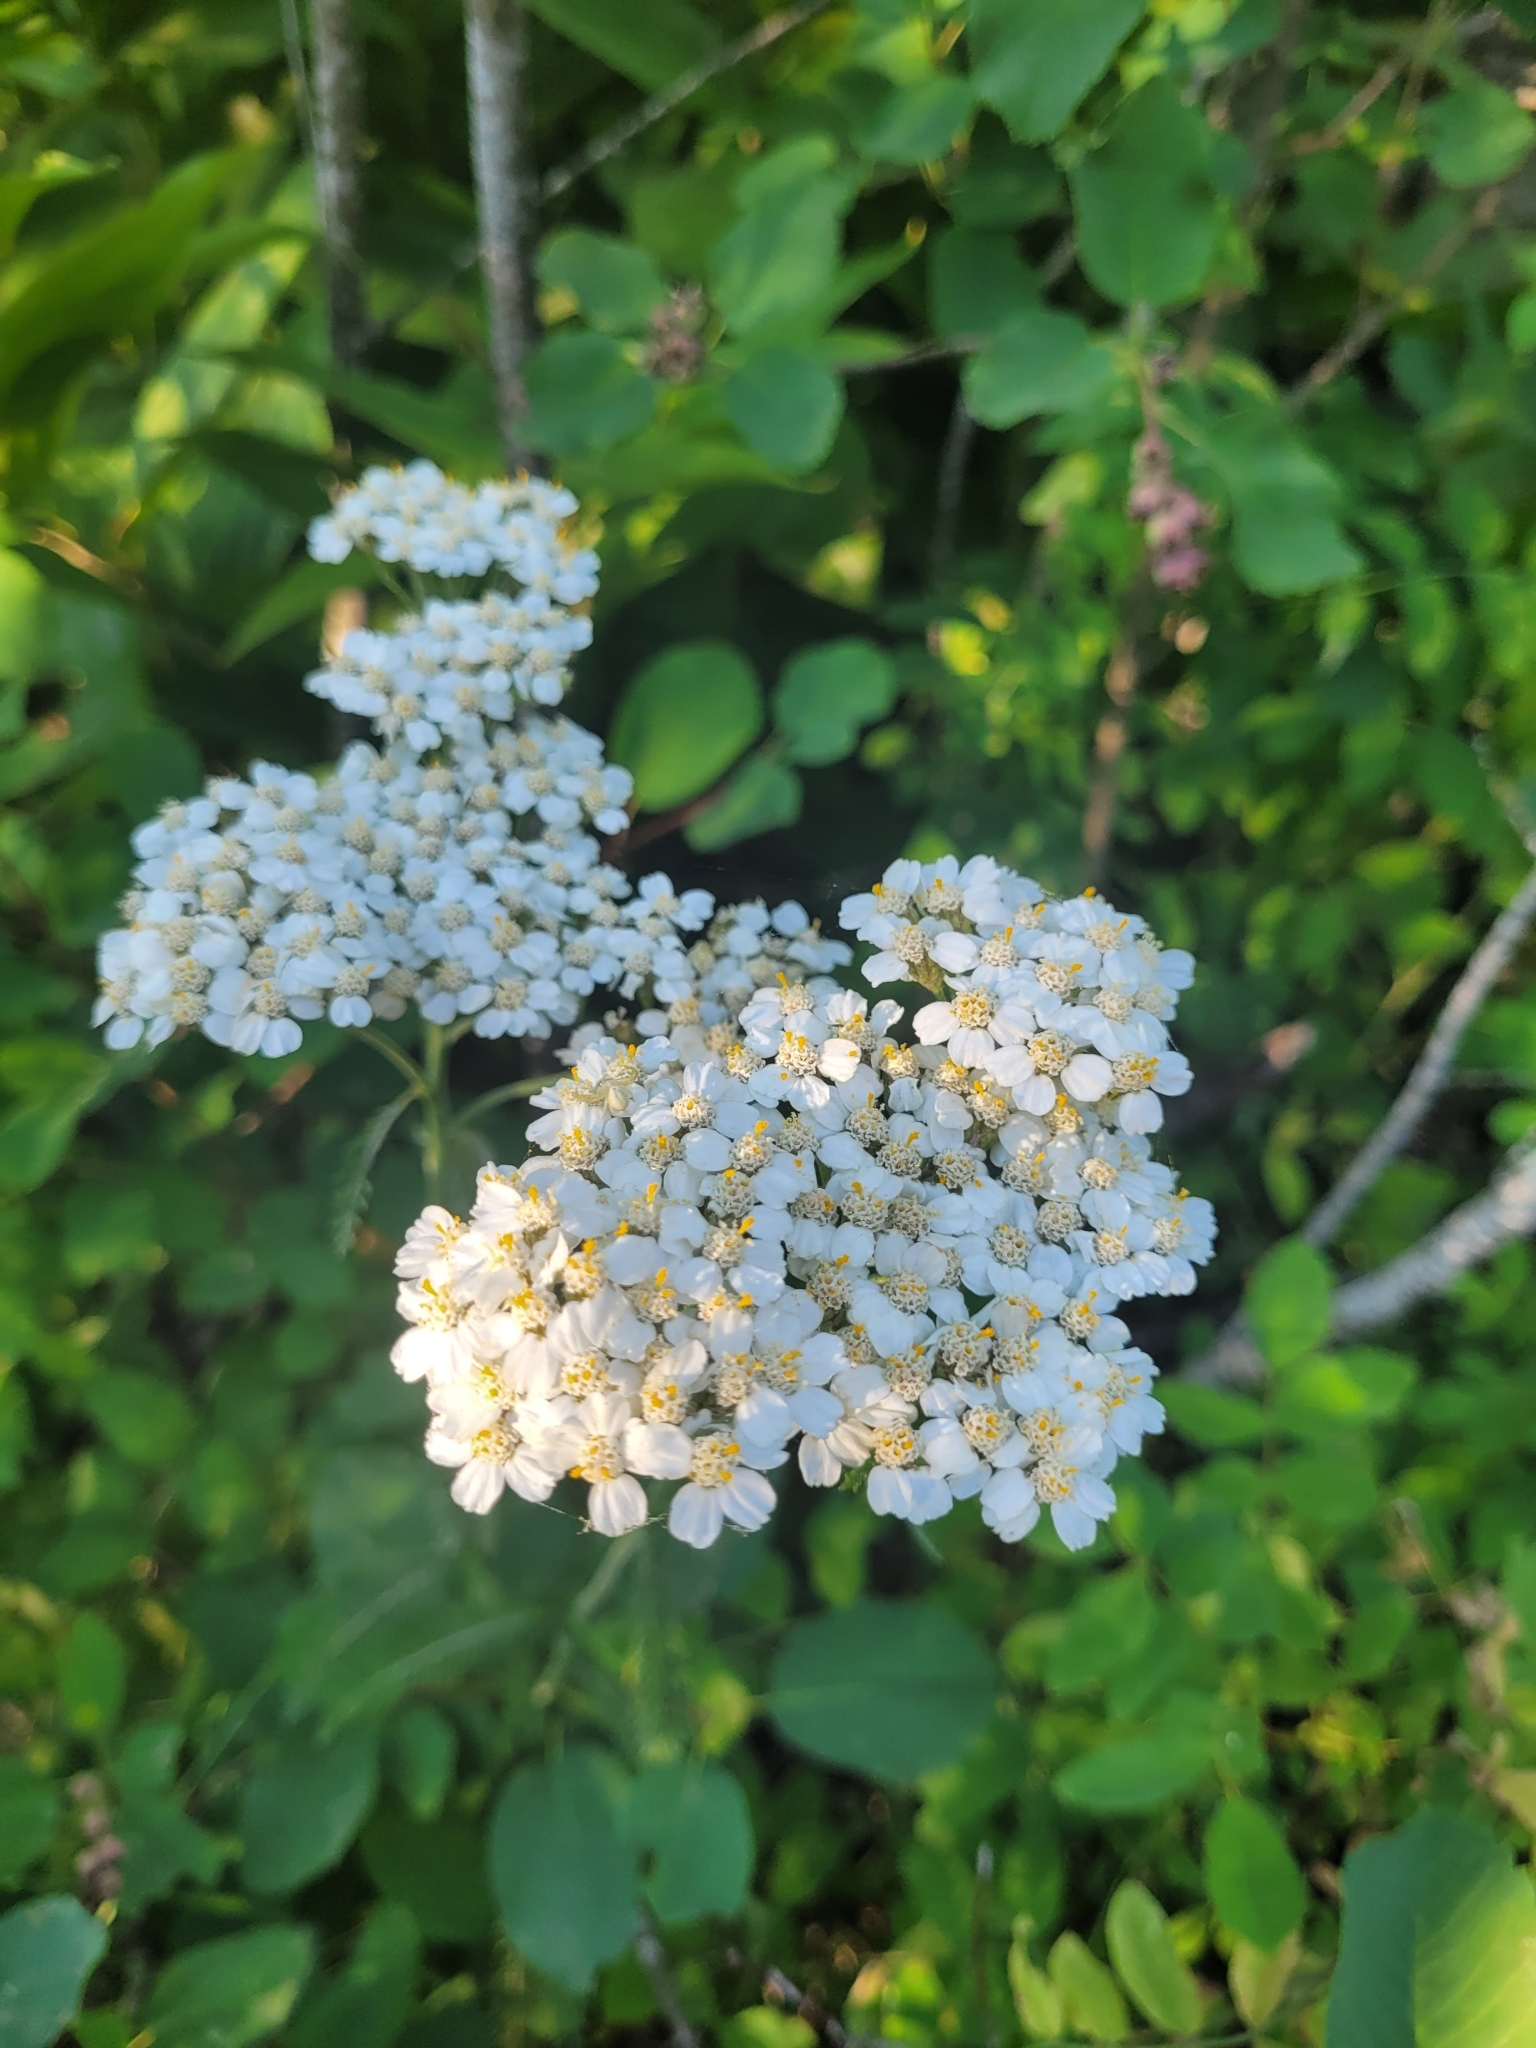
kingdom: Plantae
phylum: Tracheophyta
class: Magnoliopsida
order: Asterales
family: Asteraceae
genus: Achillea
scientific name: Achillea millefolium
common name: Yarrow
